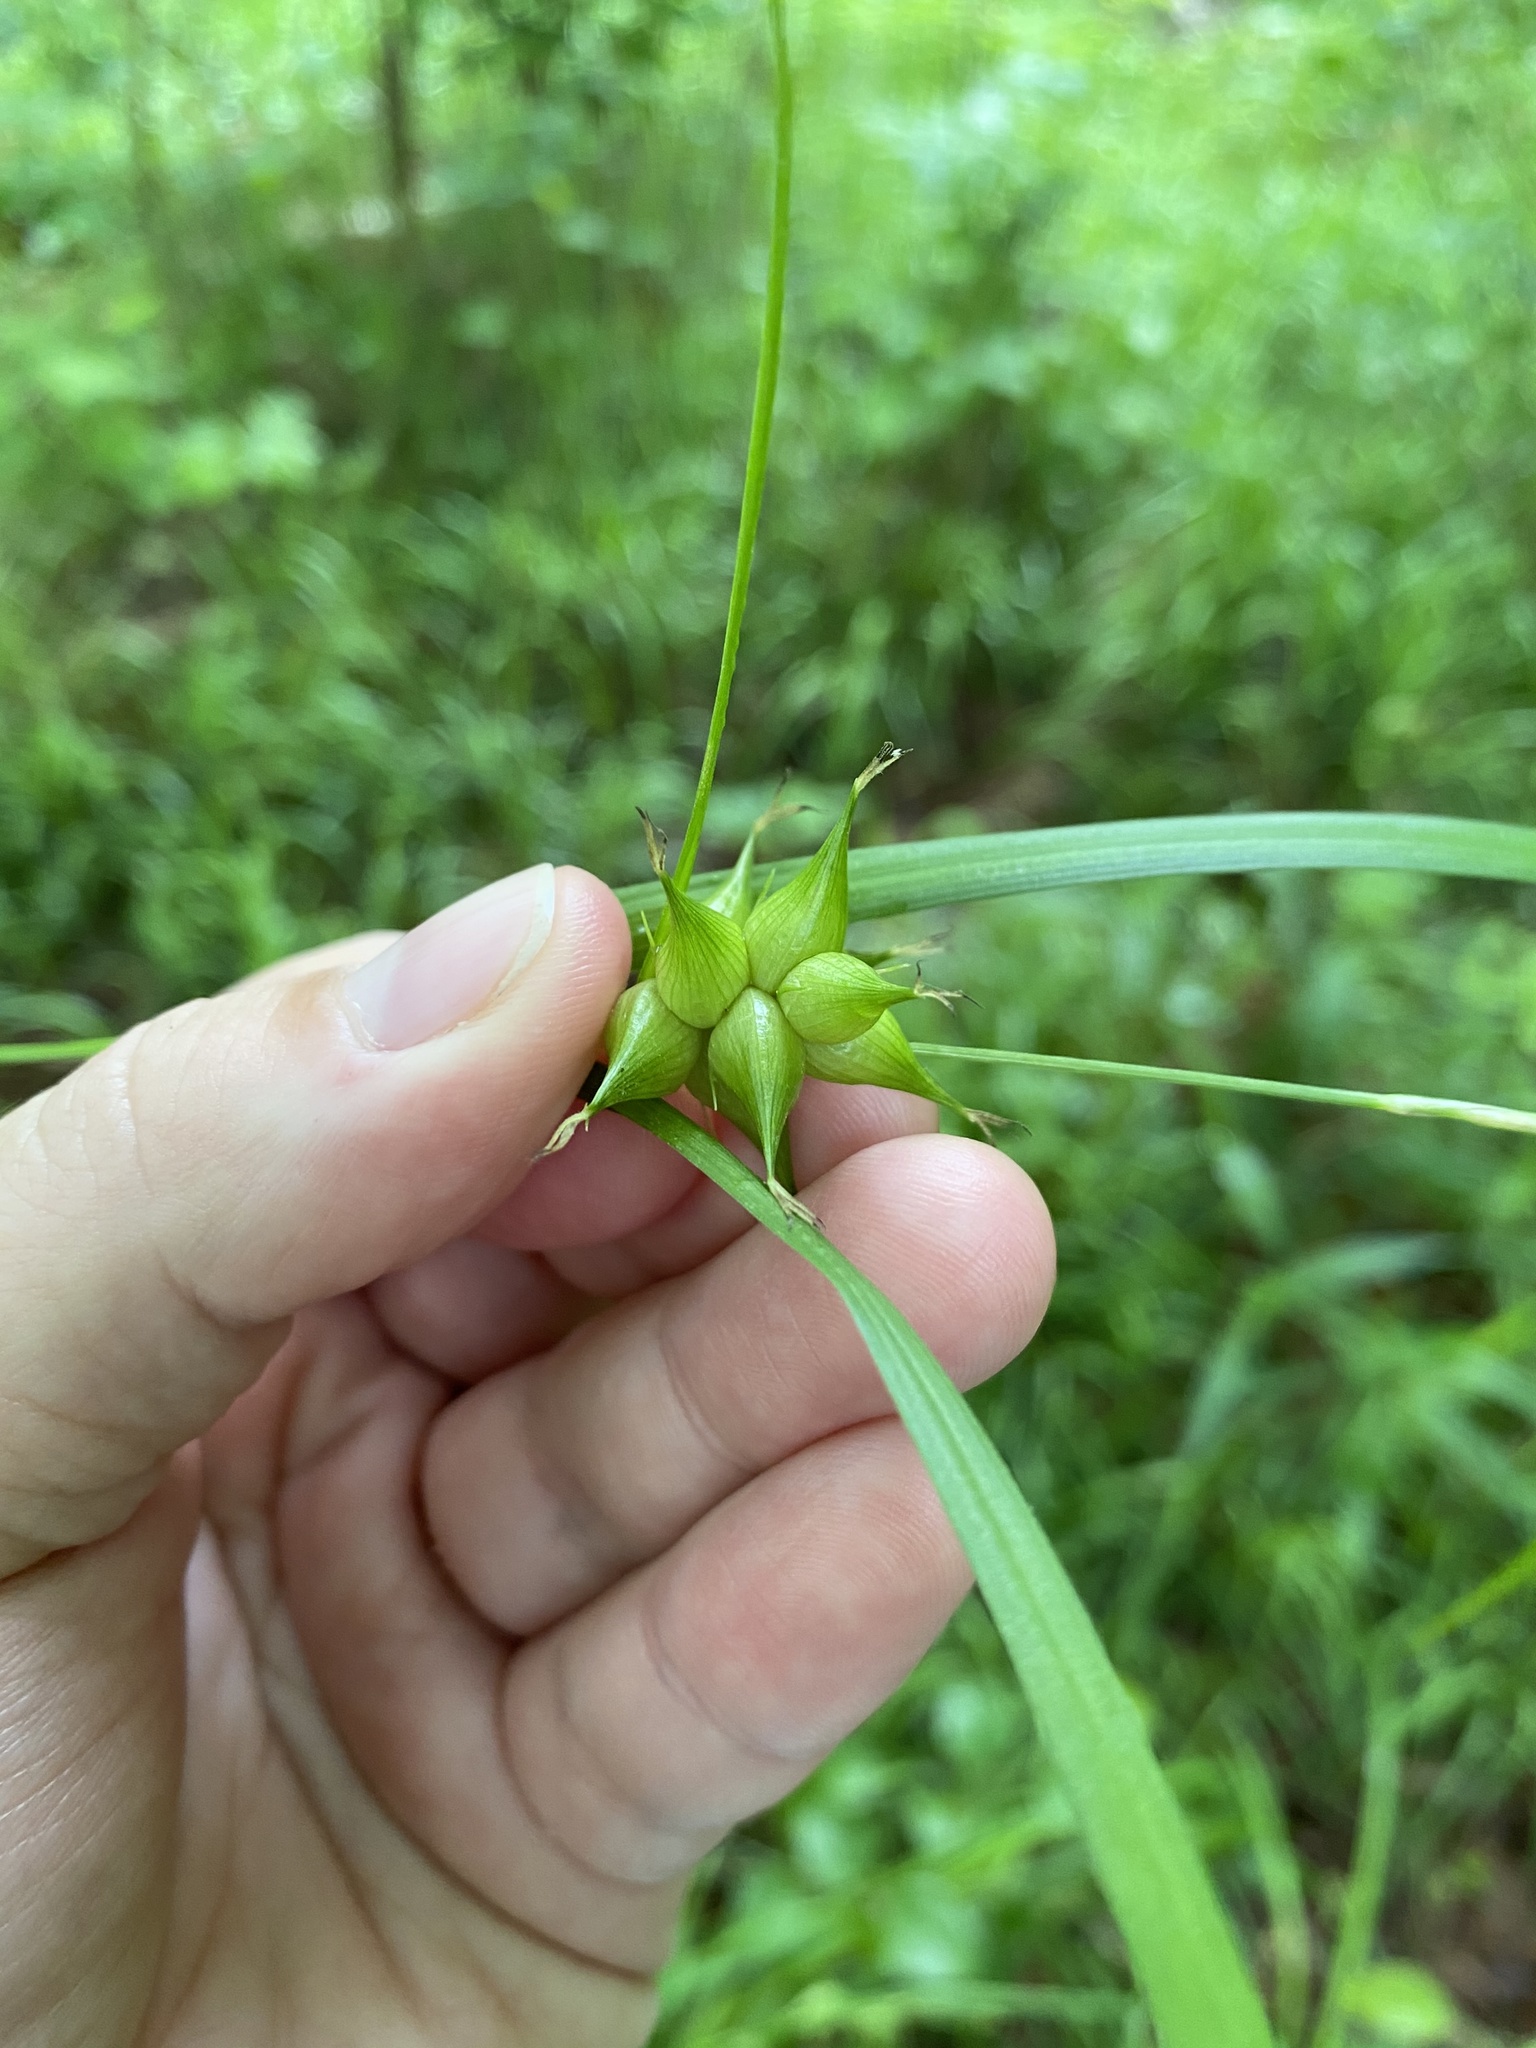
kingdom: Plantae
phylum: Tracheophyta
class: Liliopsida
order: Poales
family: Cyperaceae
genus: Carex
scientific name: Carex intumescens
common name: Greater bladder sedge
